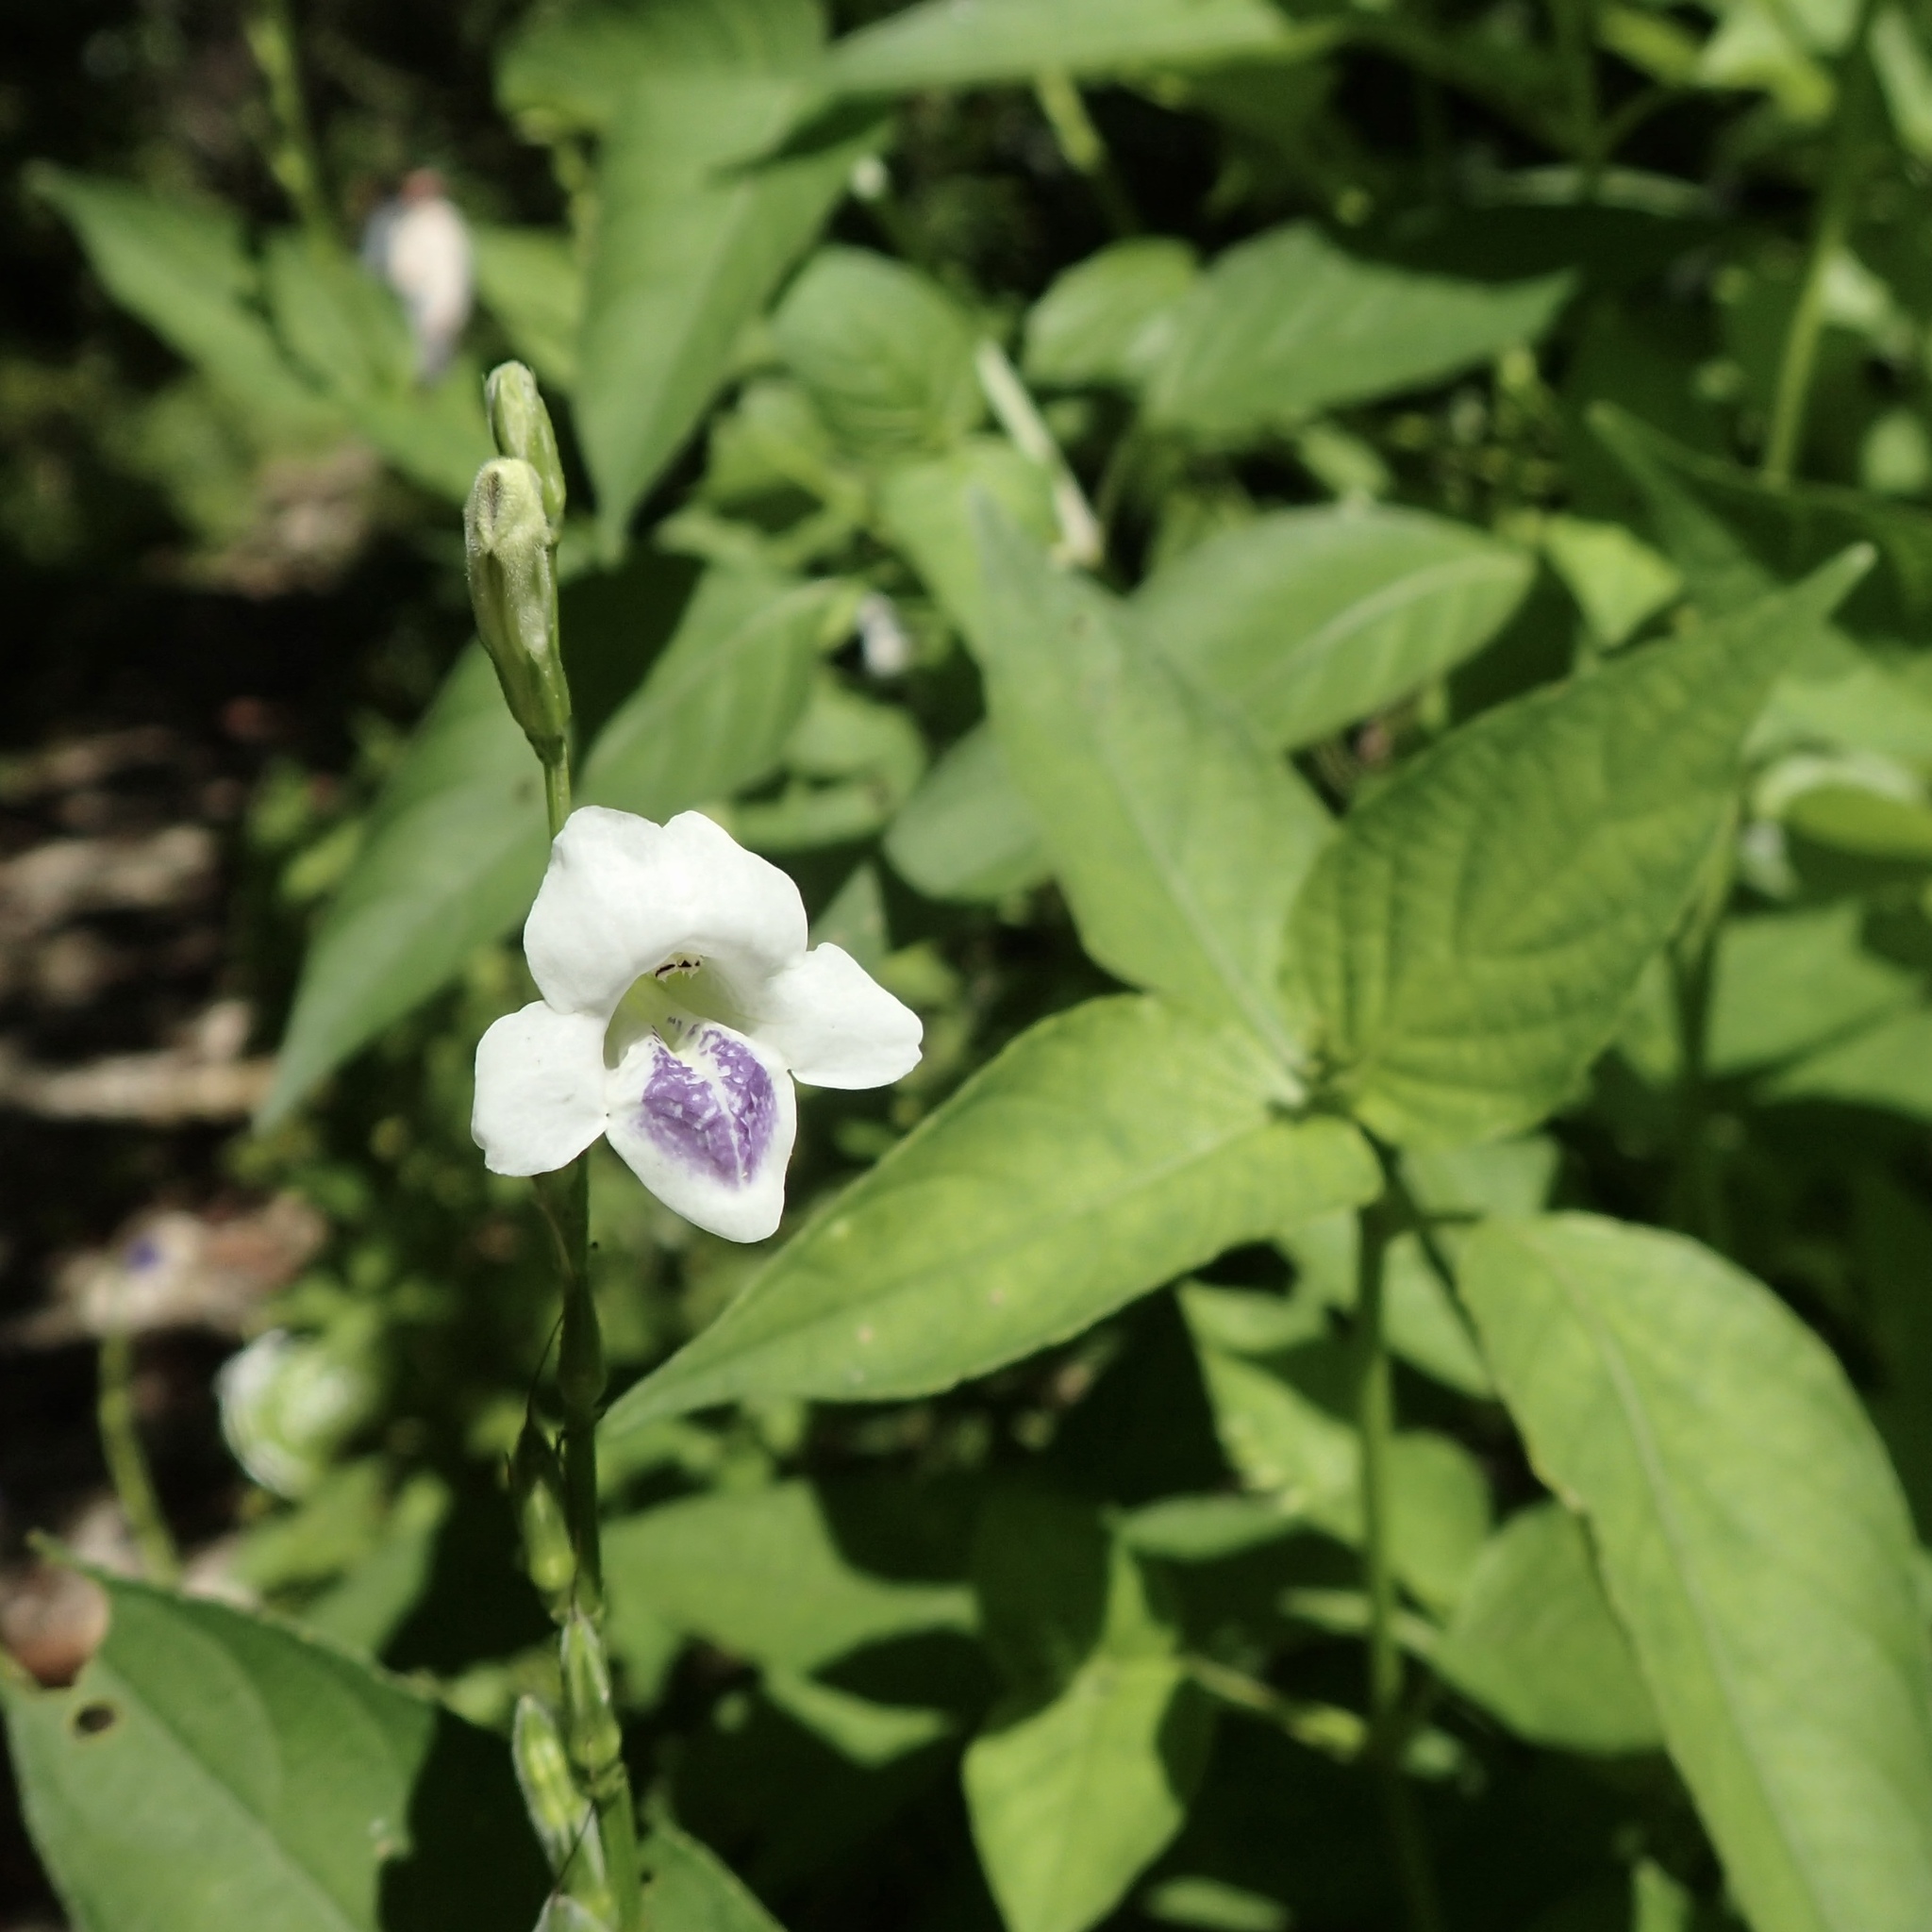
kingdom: Plantae
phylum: Tracheophyta
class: Magnoliopsida
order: Lamiales
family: Acanthaceae
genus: Asystasia
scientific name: Asystasia intrusa
